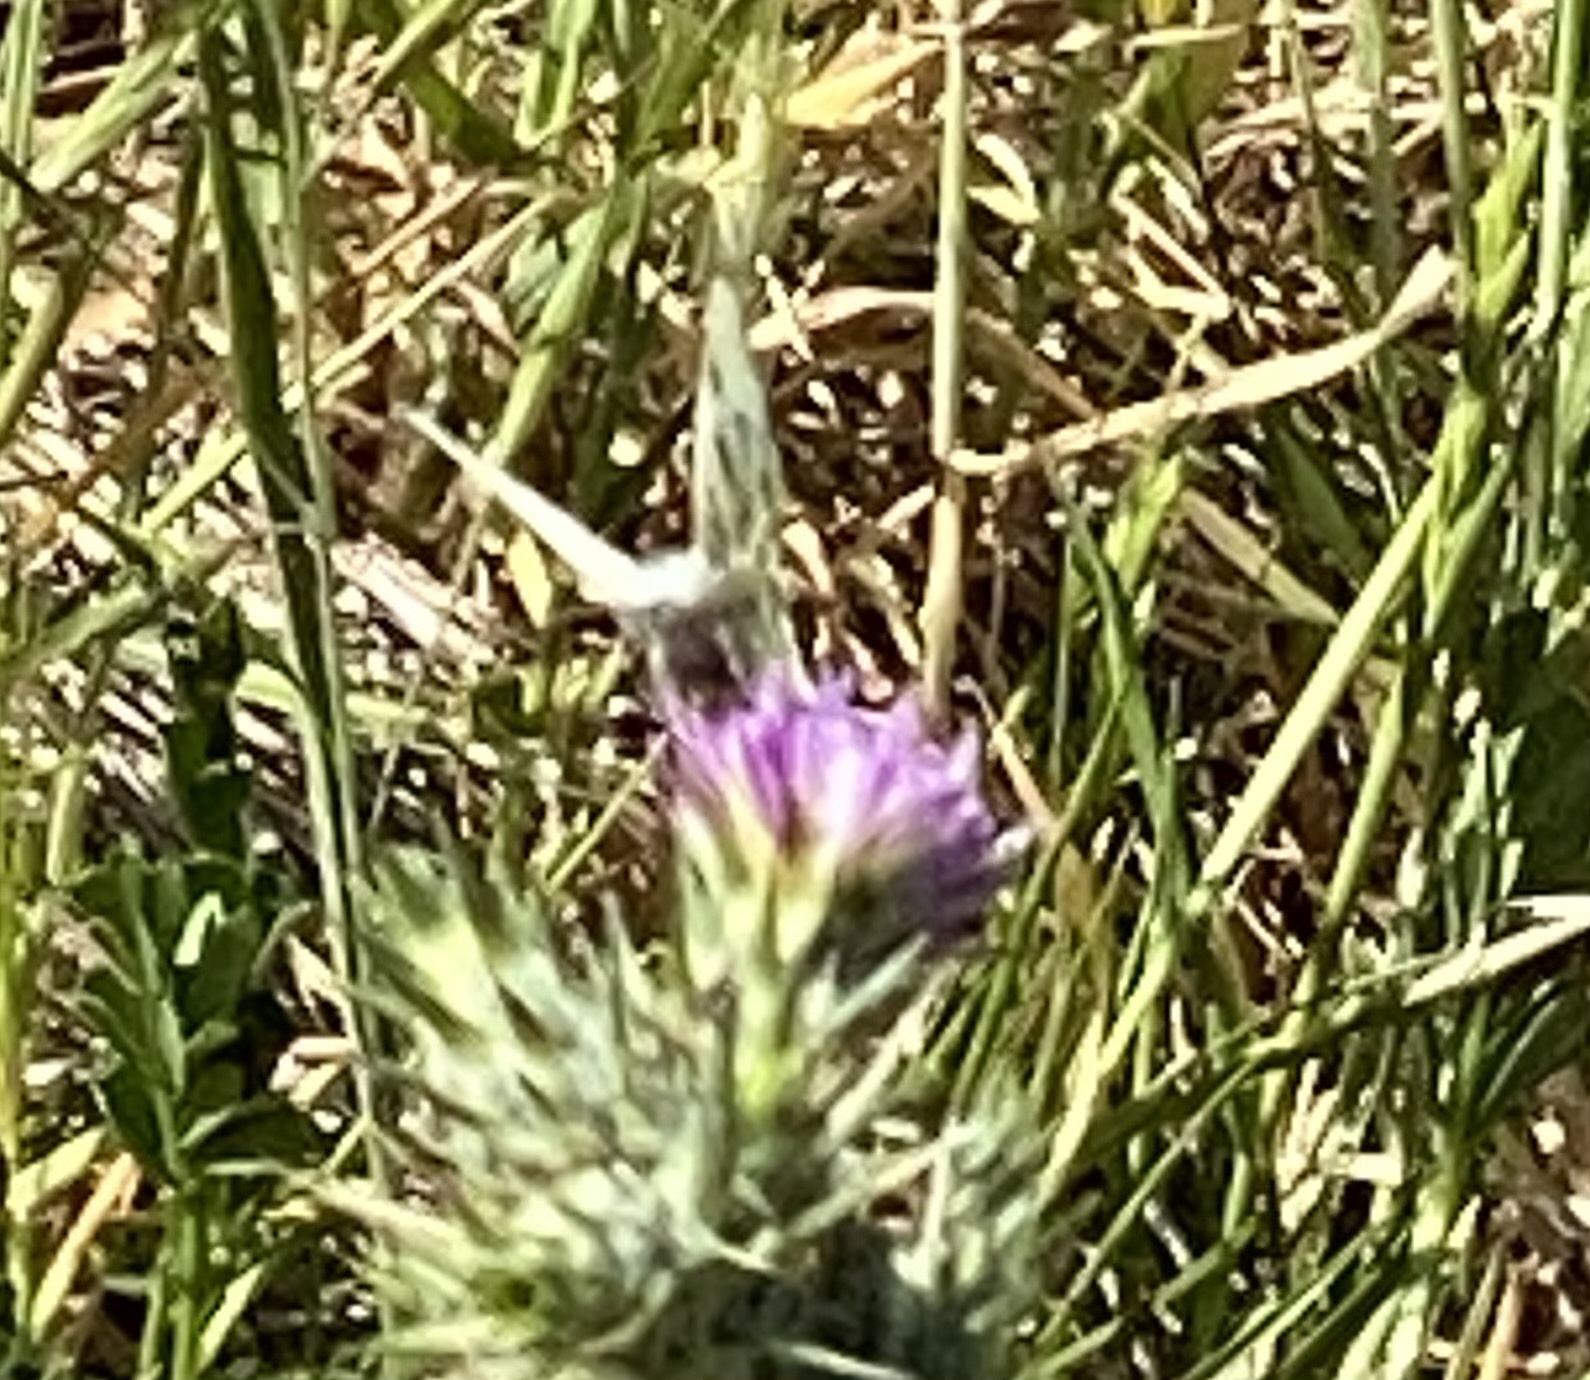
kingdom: Animalia
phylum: Arthropoda
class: Insecta
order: Lepidoptera
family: Pieridae
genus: Euchloe
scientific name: Euchloe ausonides
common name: Creamy marblewing
